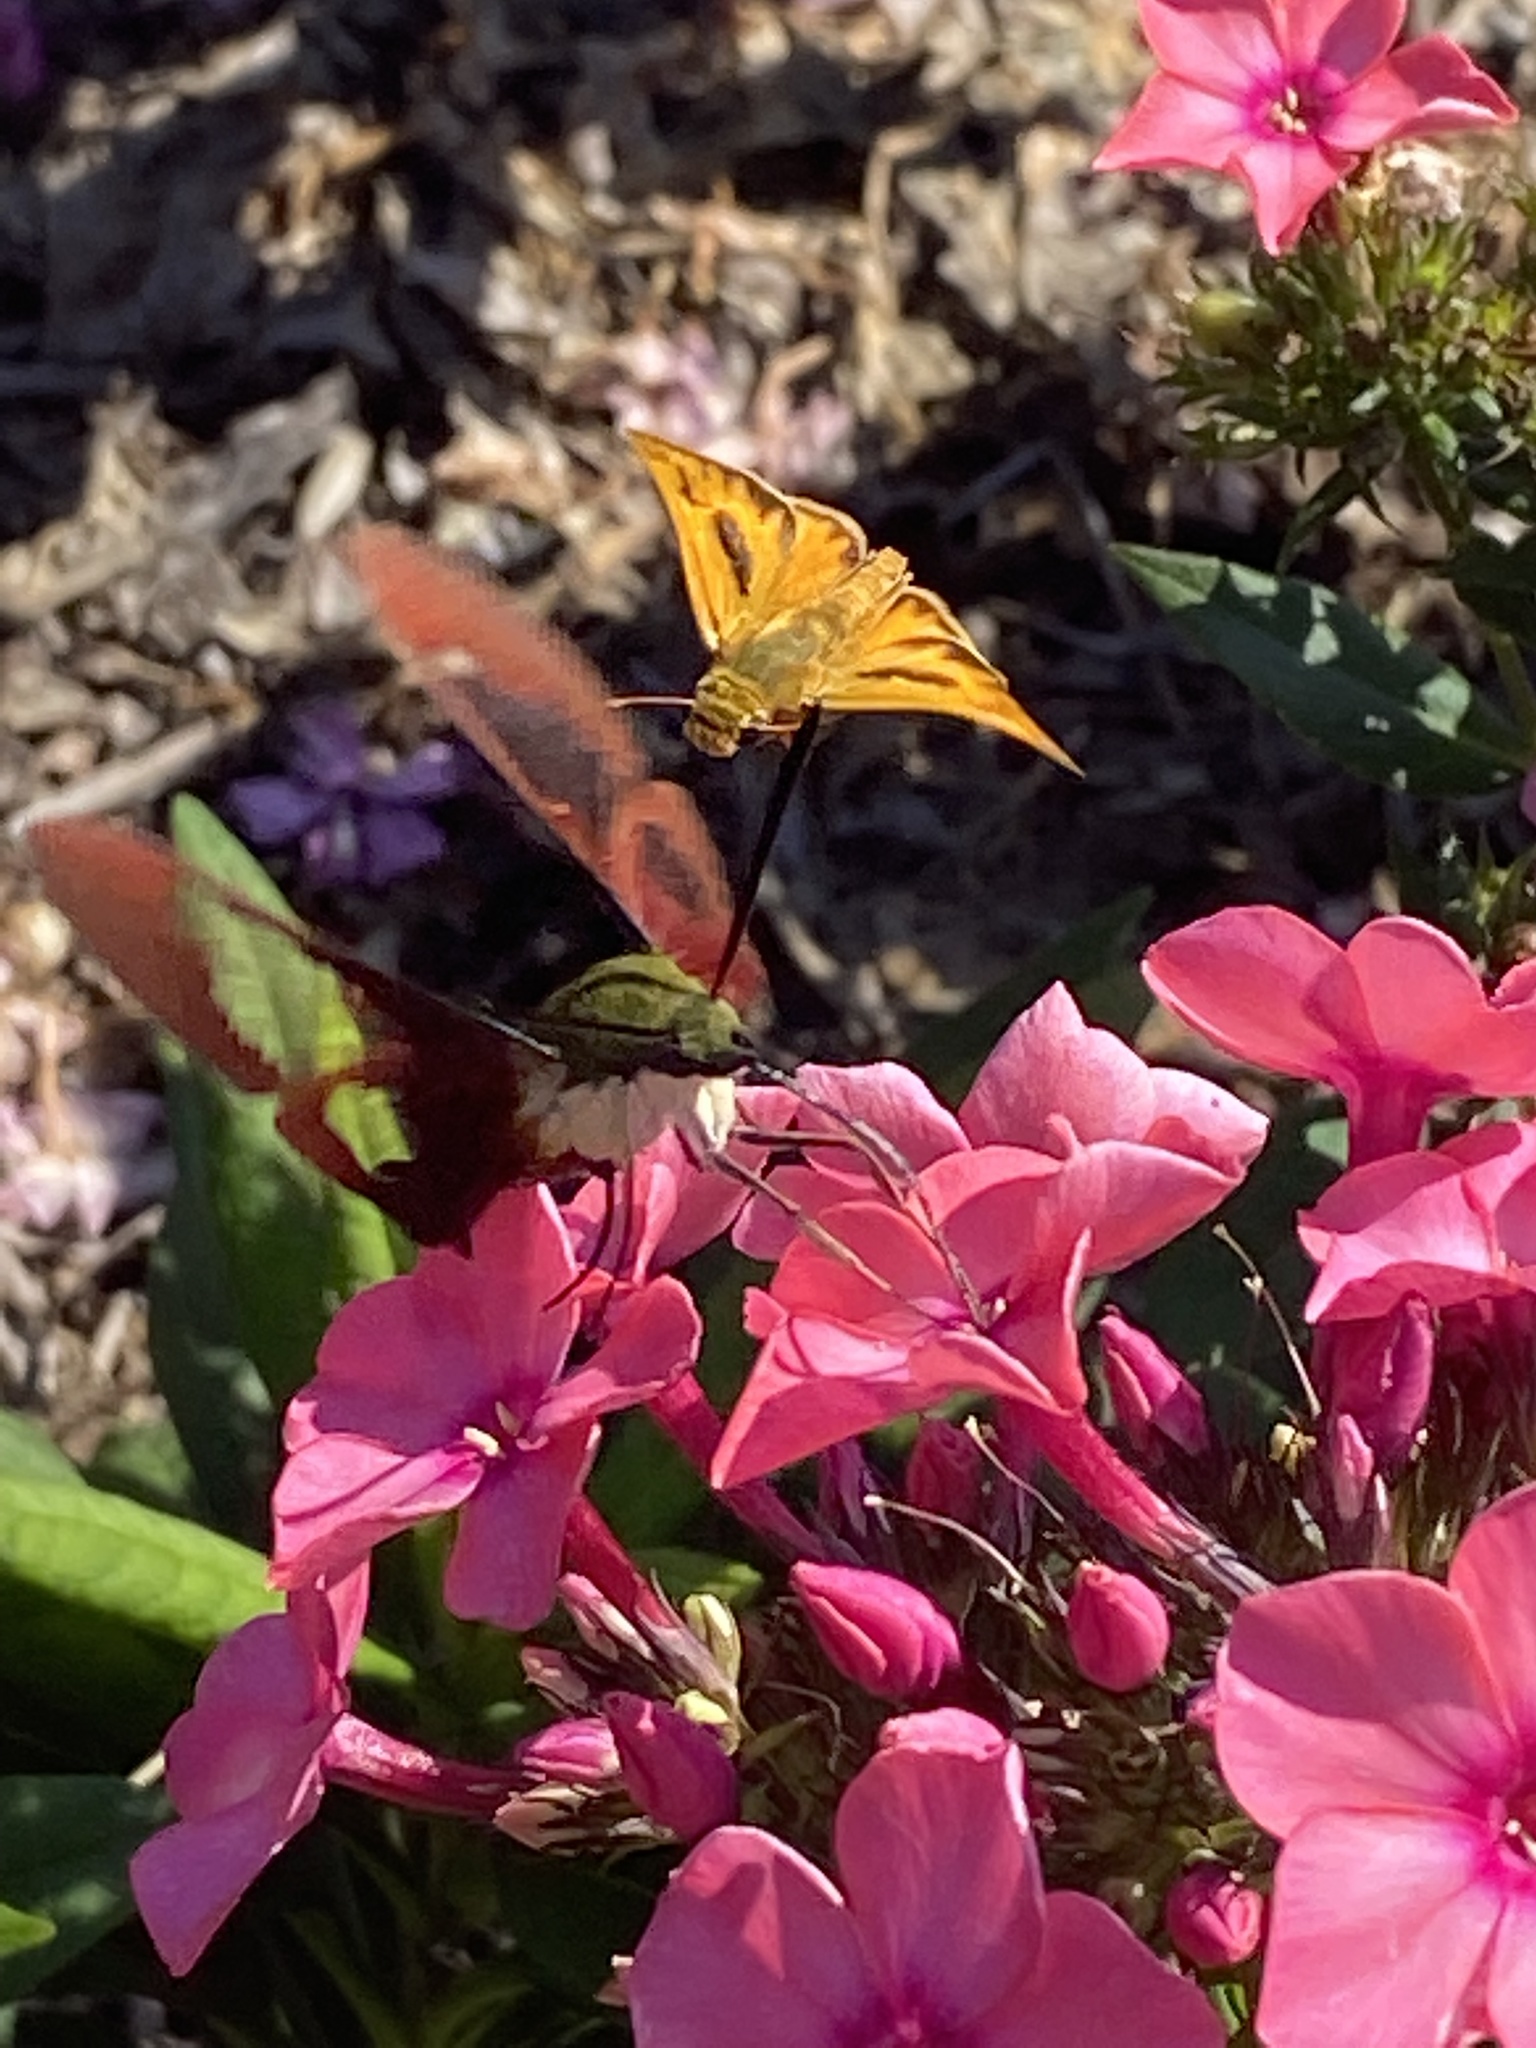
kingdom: Animalia
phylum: Arthropoda
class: Insecta
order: Lepidoptera
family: Sphingidae
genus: Hemaris
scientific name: Hemaris thysbe
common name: Common clear-wing
